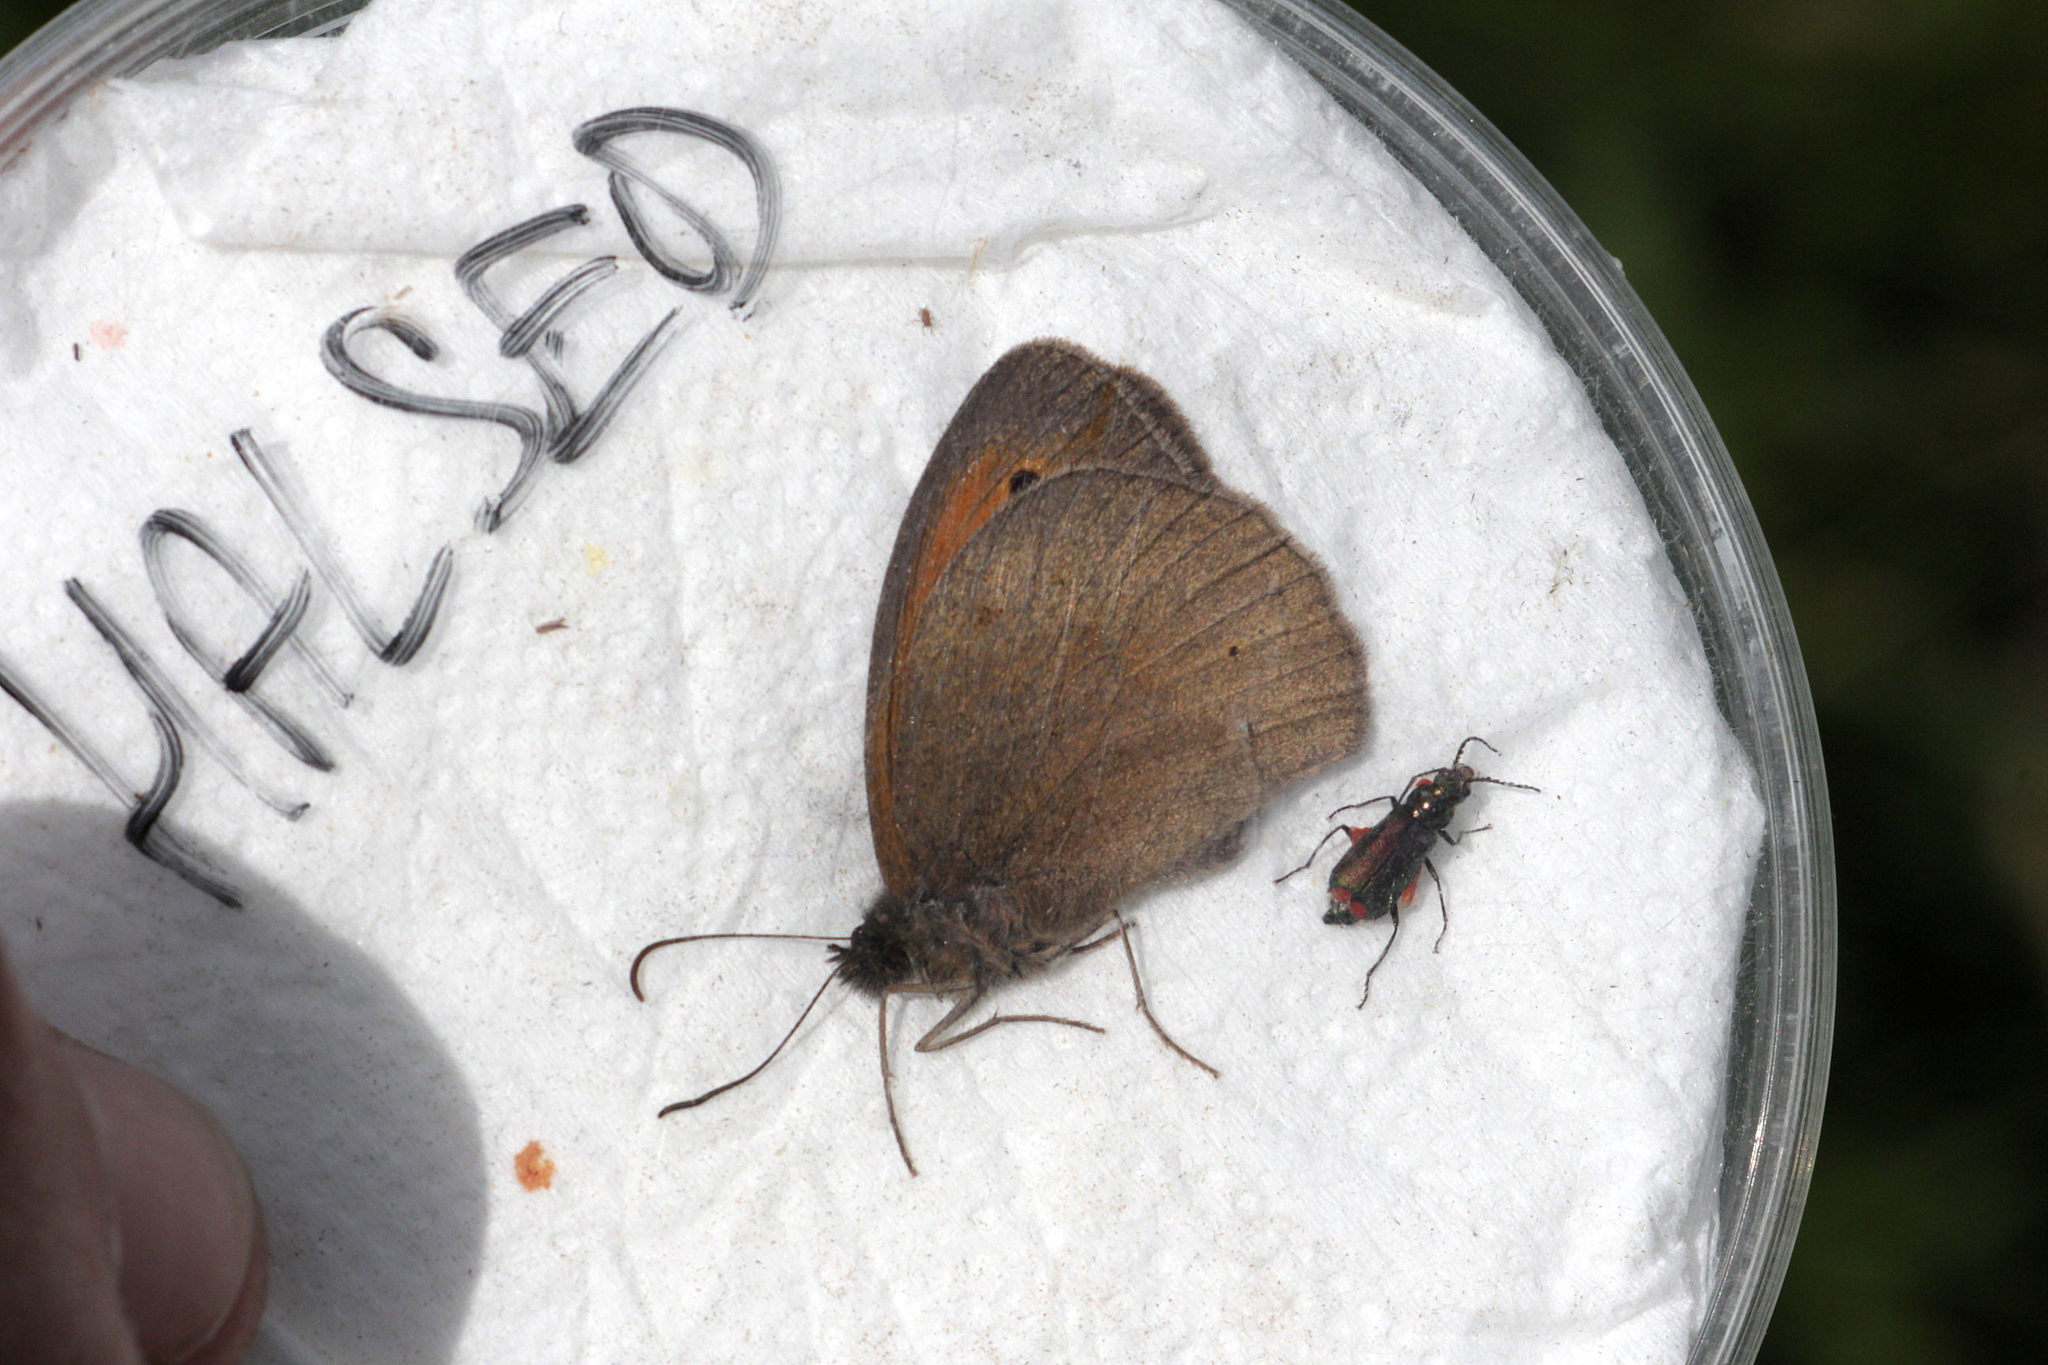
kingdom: Animalia
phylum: Arthropoda
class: Insecta
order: Lepidoptera
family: Nymphalidae
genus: Maniola
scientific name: Maniola jurtina
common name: Meadow brown
